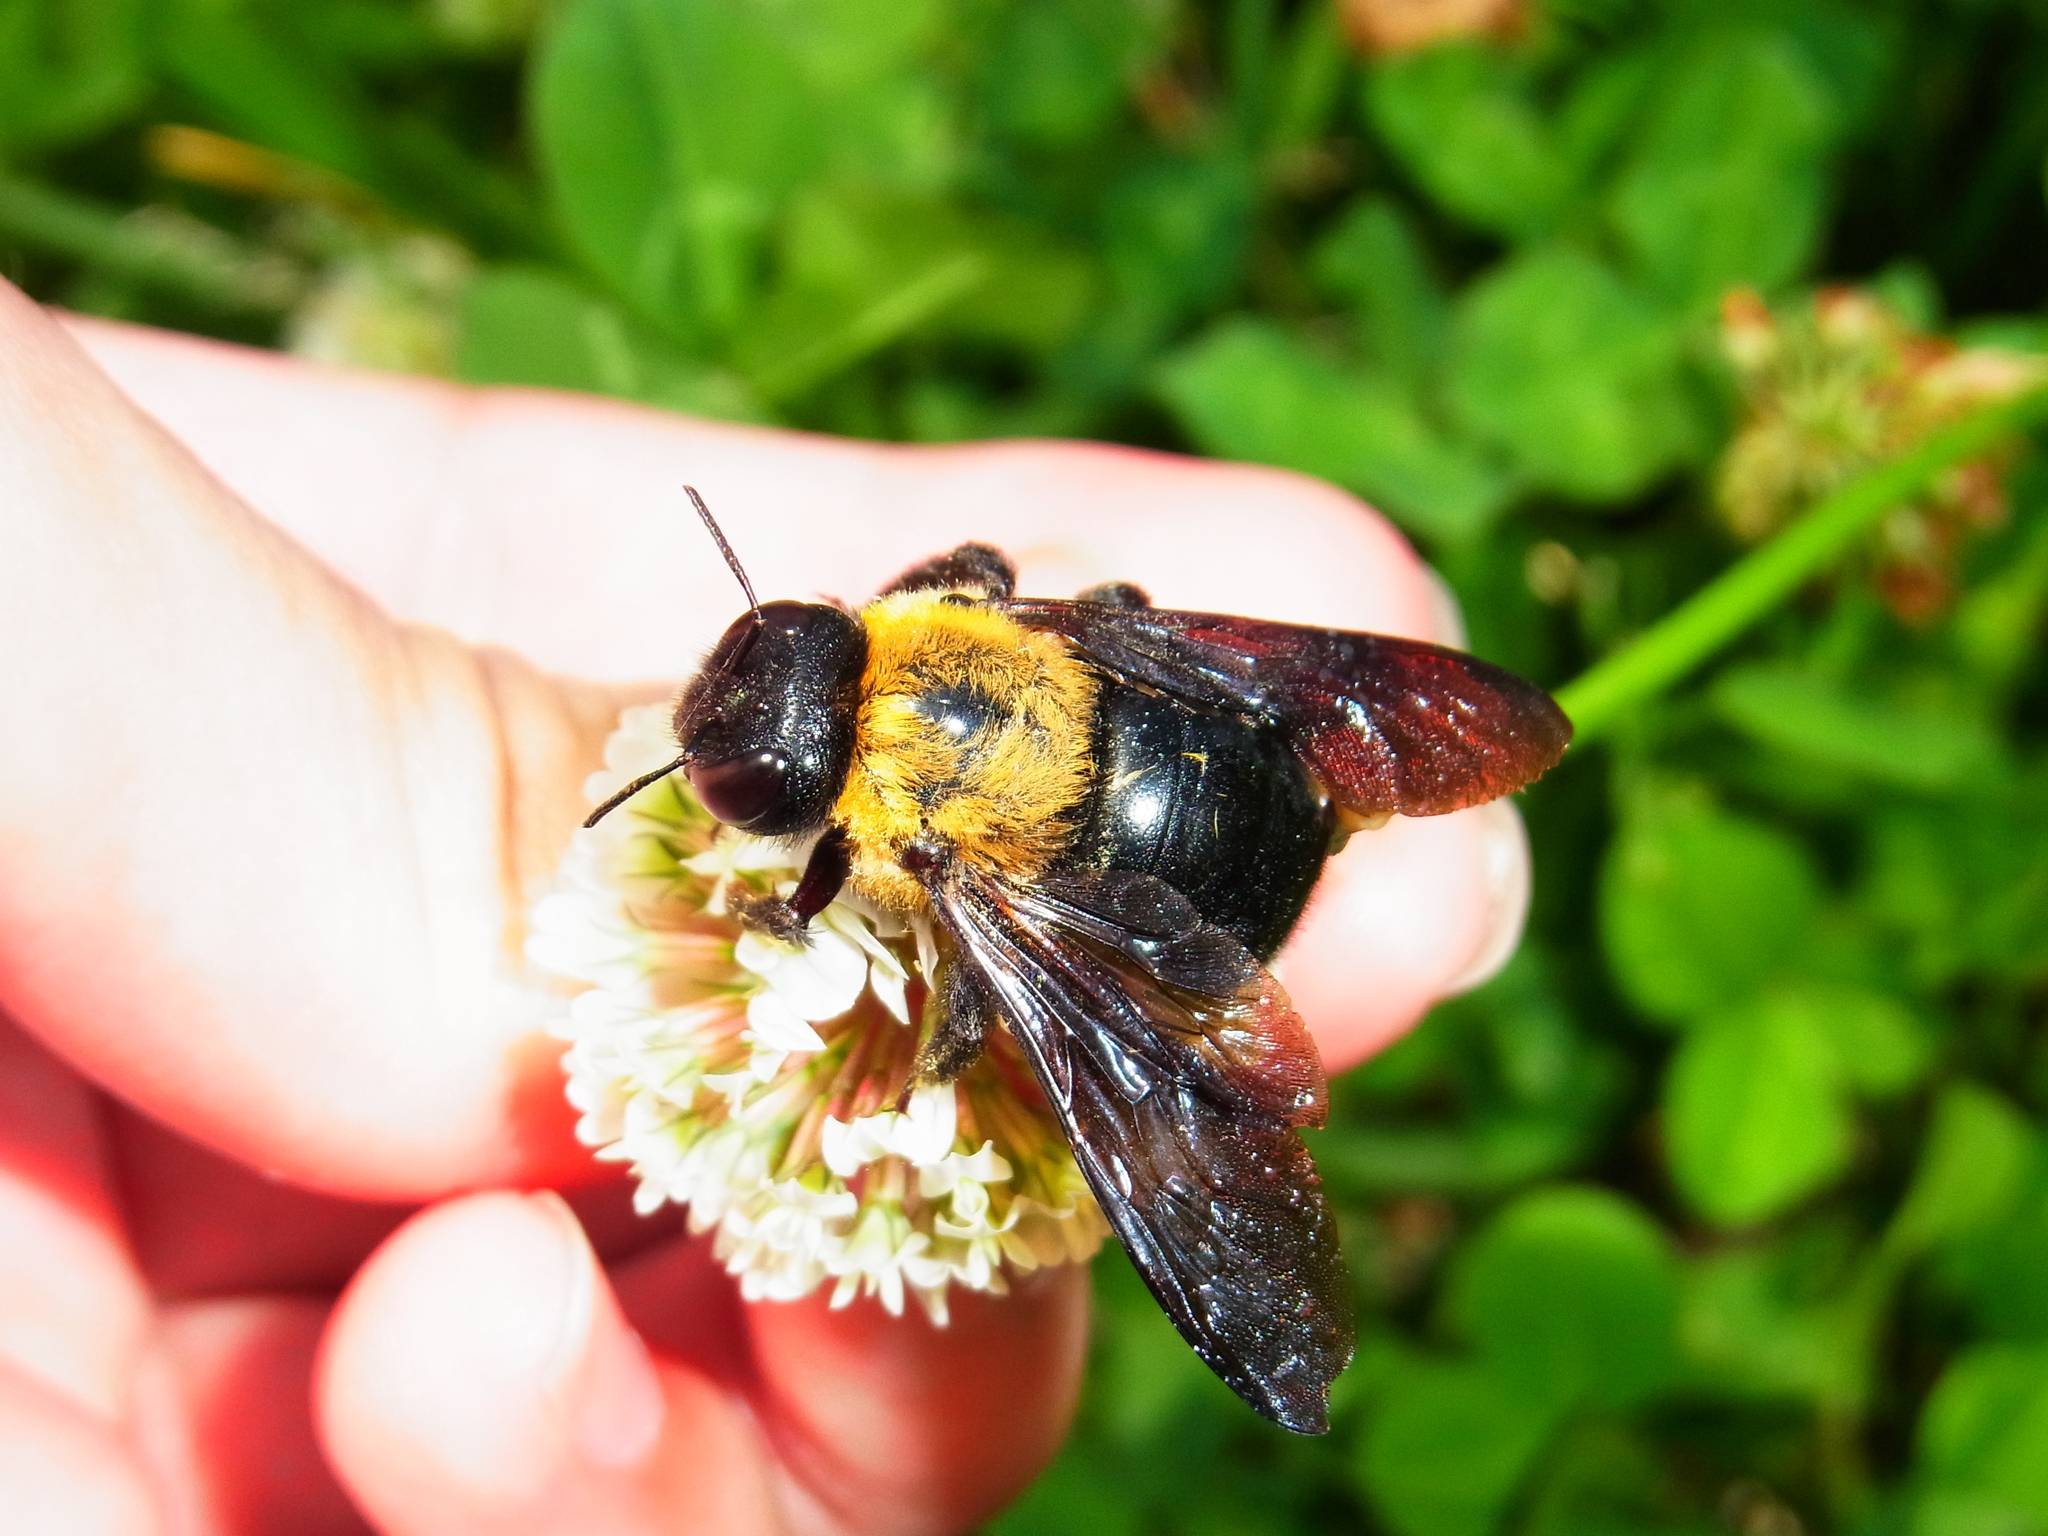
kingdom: Animalia
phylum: Arthropoda
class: Insecta
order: Hymenoptera
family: Apidae
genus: Xylocopa
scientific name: Xylocopa appendiculata
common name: Japanese carpenter bee
